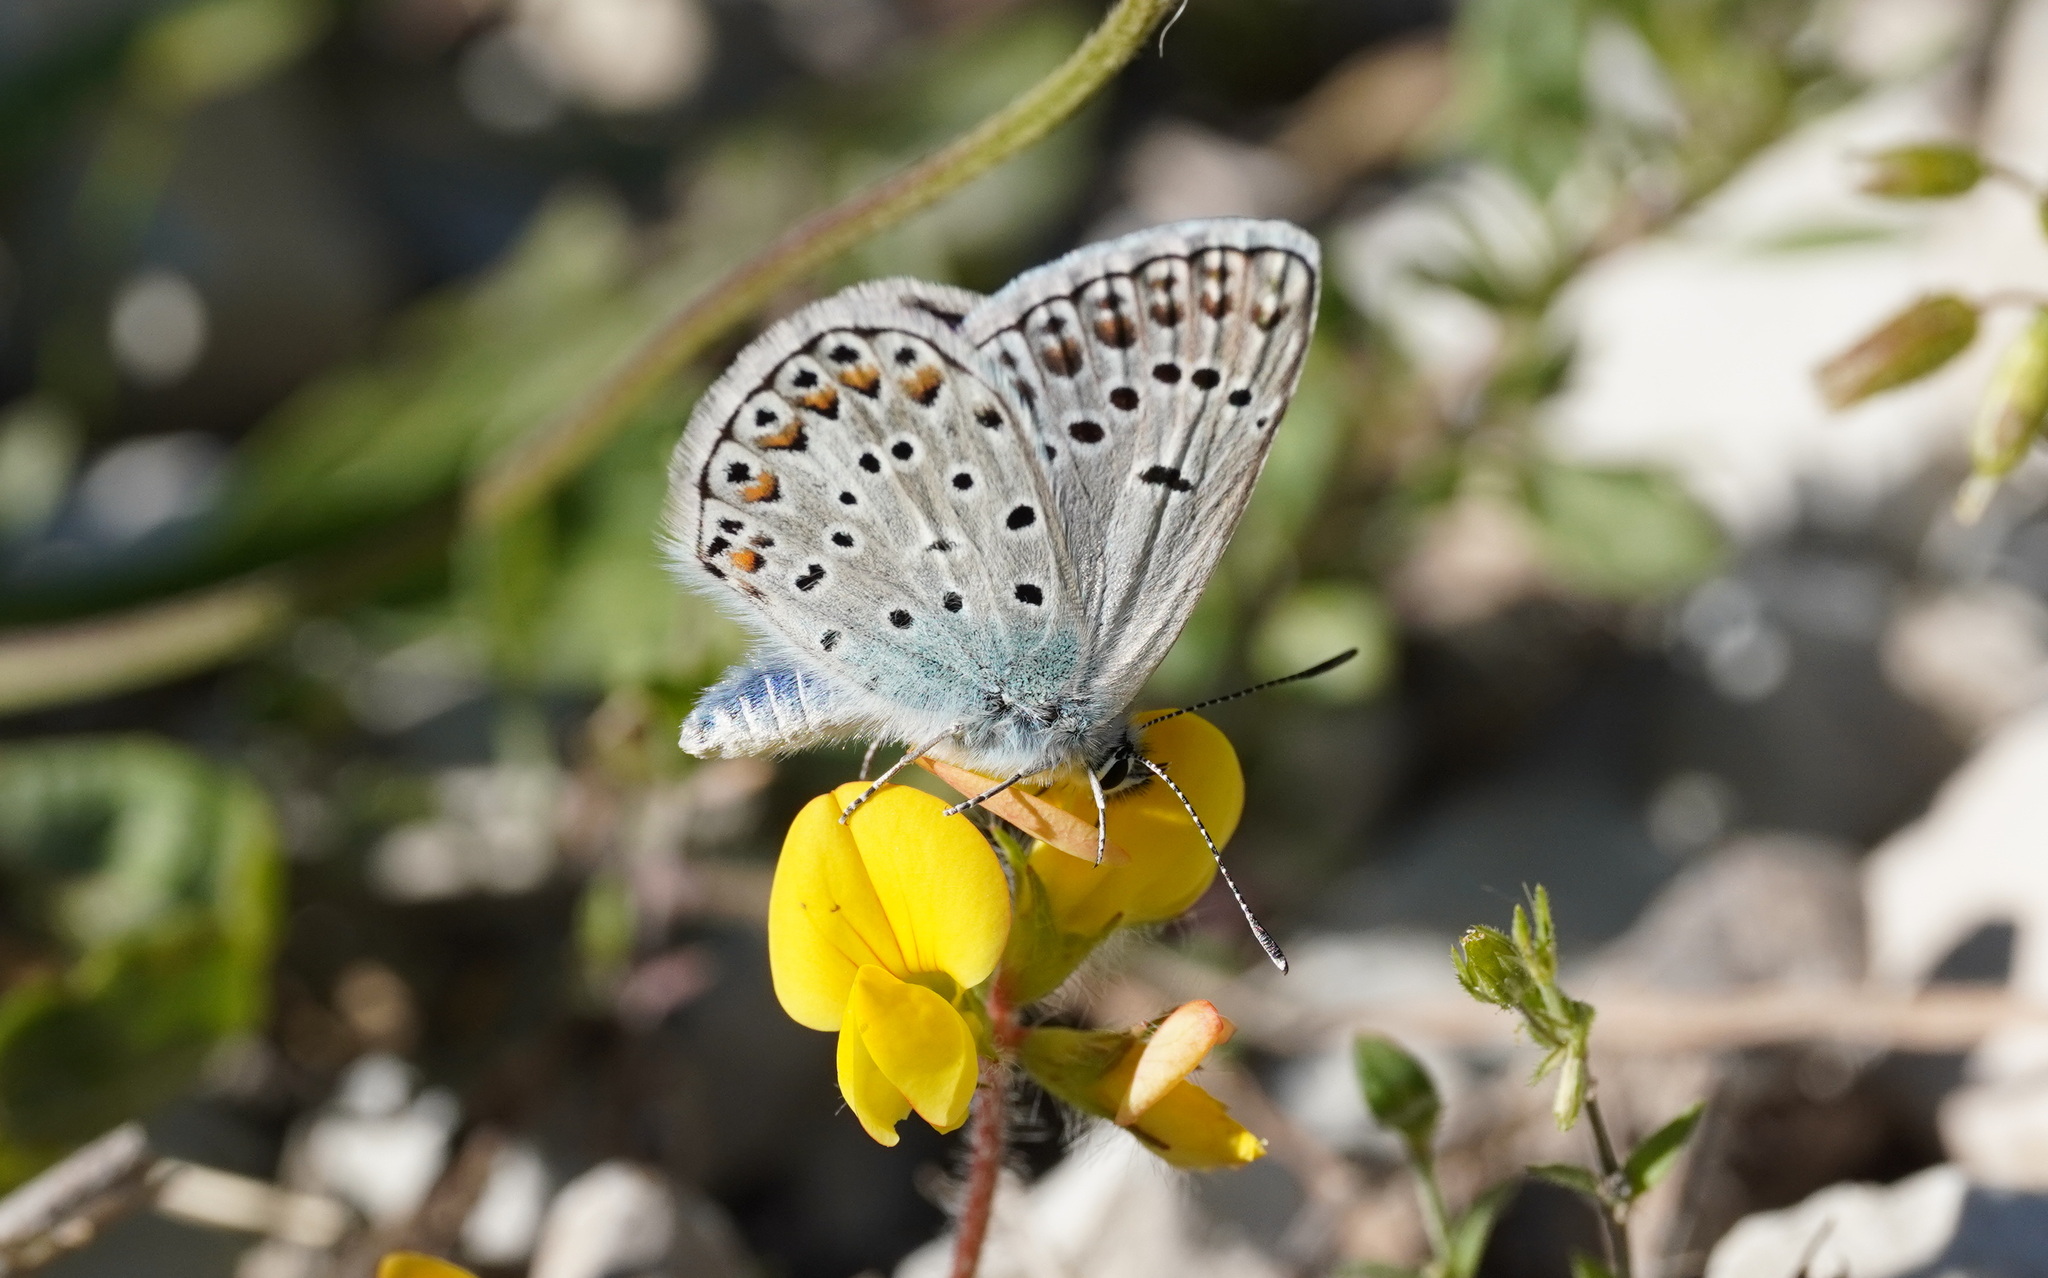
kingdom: Animalia
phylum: Arthropoda
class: Insecta
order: Lepidoptera
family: Lycaenidae
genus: Plebicula
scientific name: Plebicula escheri
